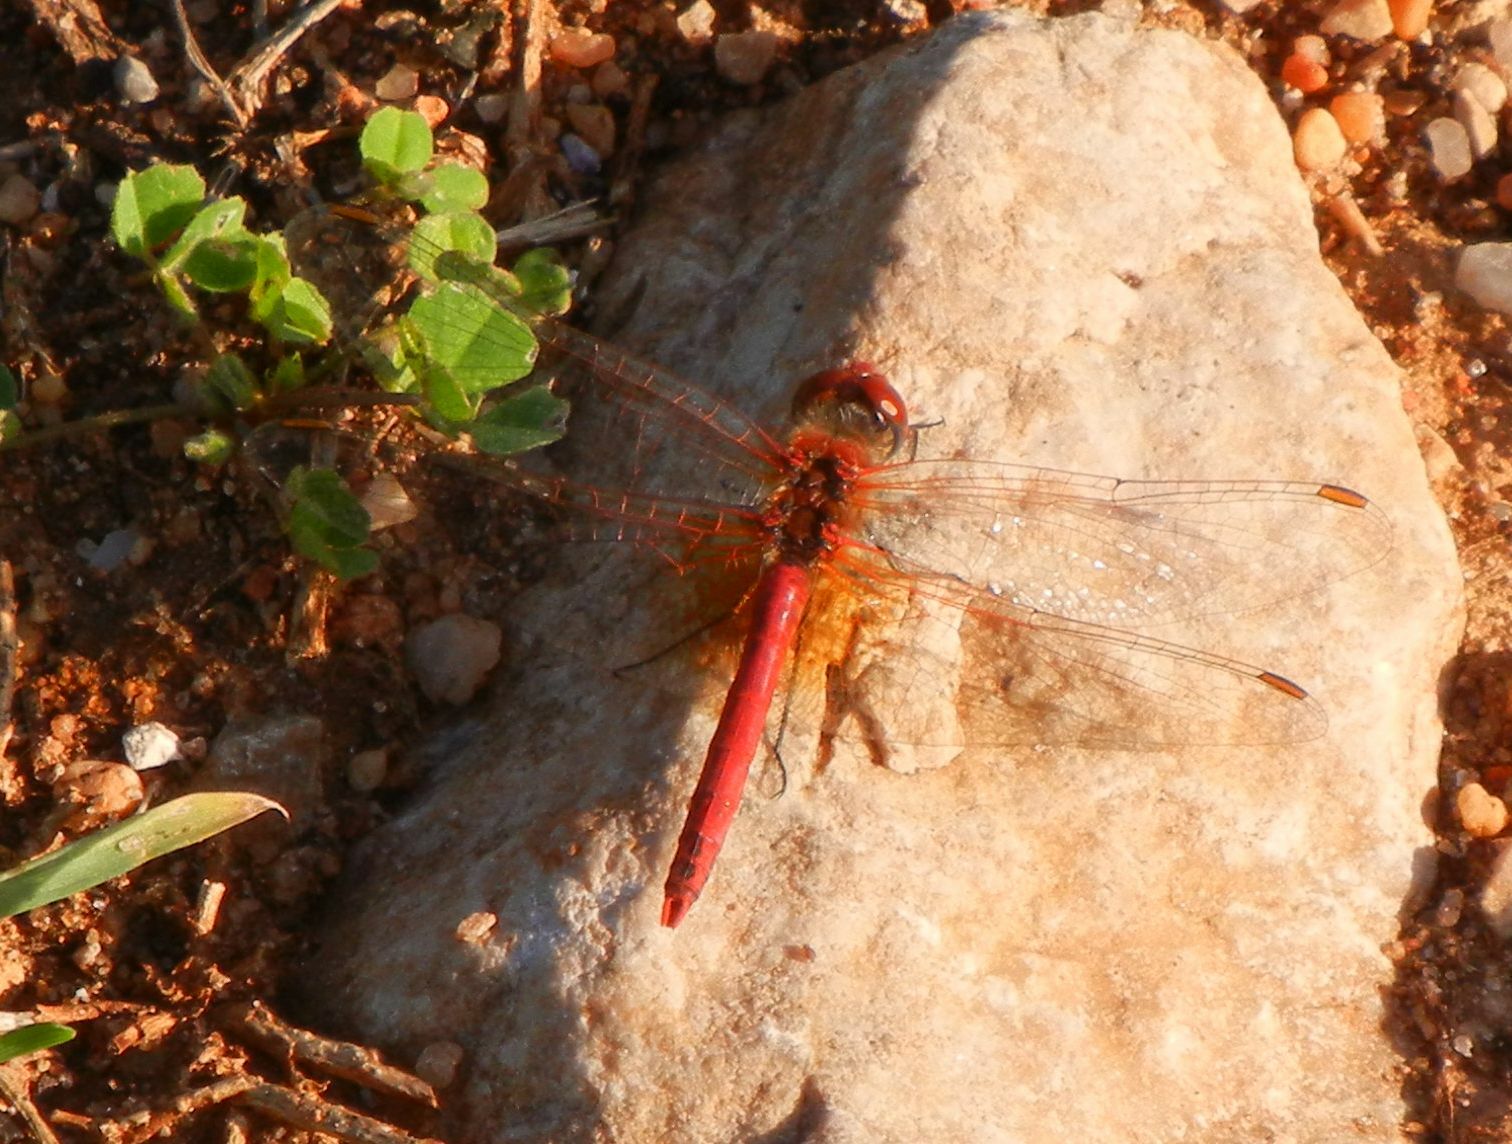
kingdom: Animalia
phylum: Arthropoda
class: Insecta
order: Odonata
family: Libellulidae
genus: Sympetrum
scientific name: Sympetrum fonscolombii
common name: Red-veined darter
